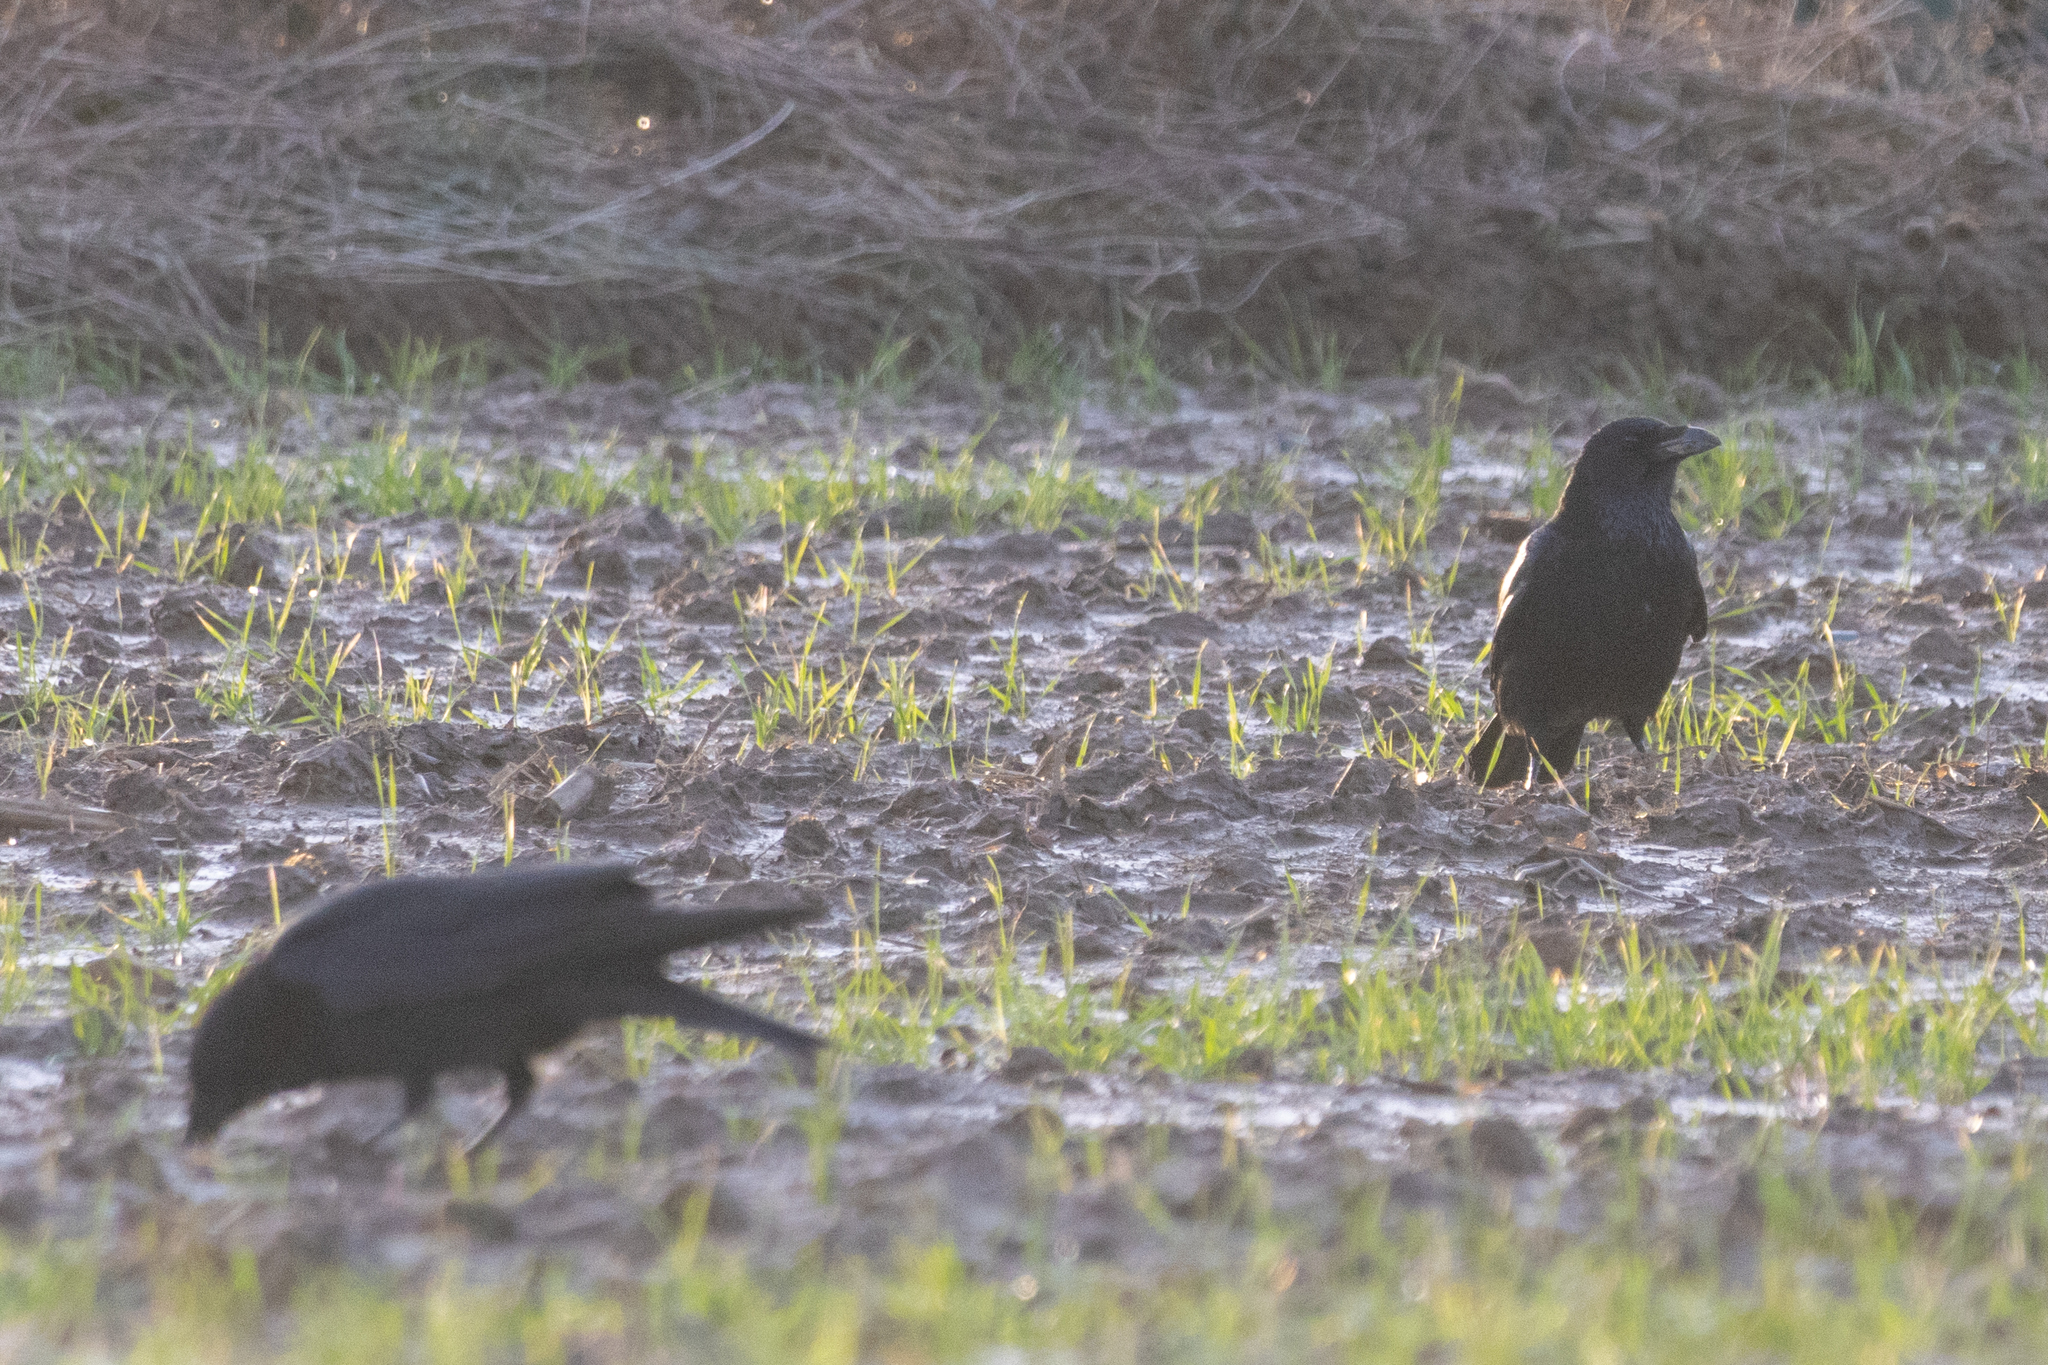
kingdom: Animalia
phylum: Chordata
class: Aves
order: Passeriformes
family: Corvidae
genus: Corvus
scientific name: Corvus corone
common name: Carrion crow
